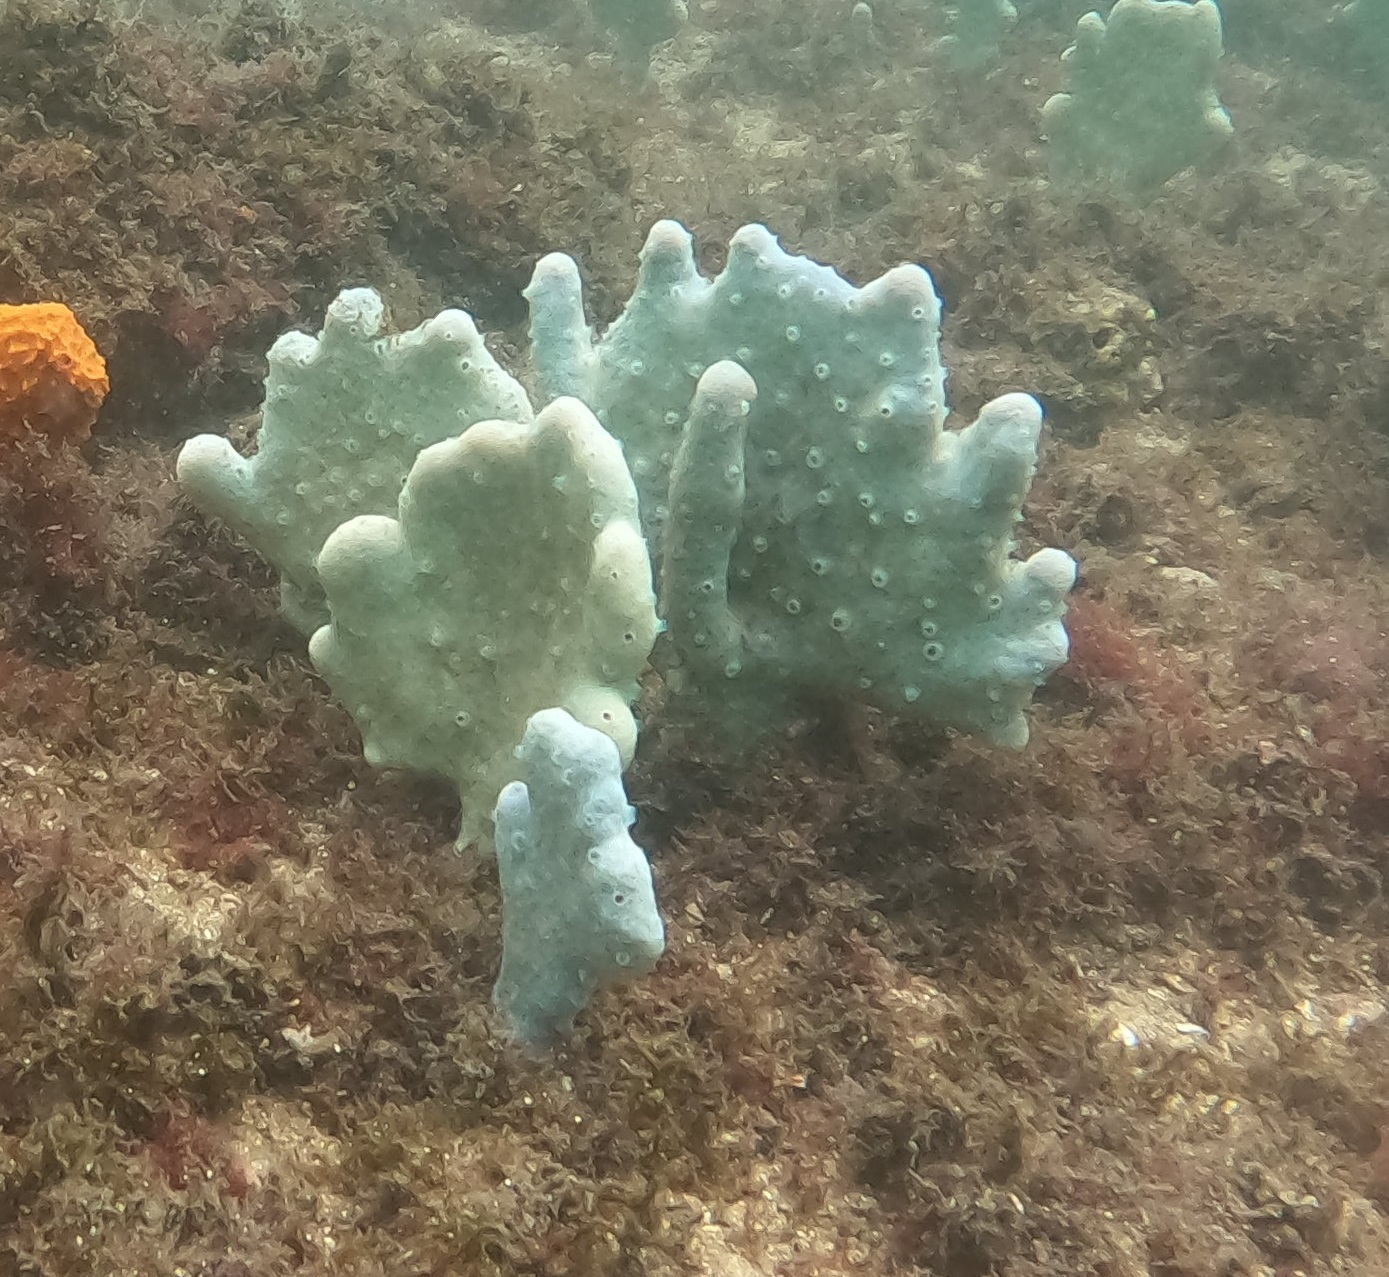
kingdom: Animalia
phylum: Porifera
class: Demospongiae
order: Haplosclerida
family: Callyspongiidae
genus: Callyspongia
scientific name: Callyspongia manus
